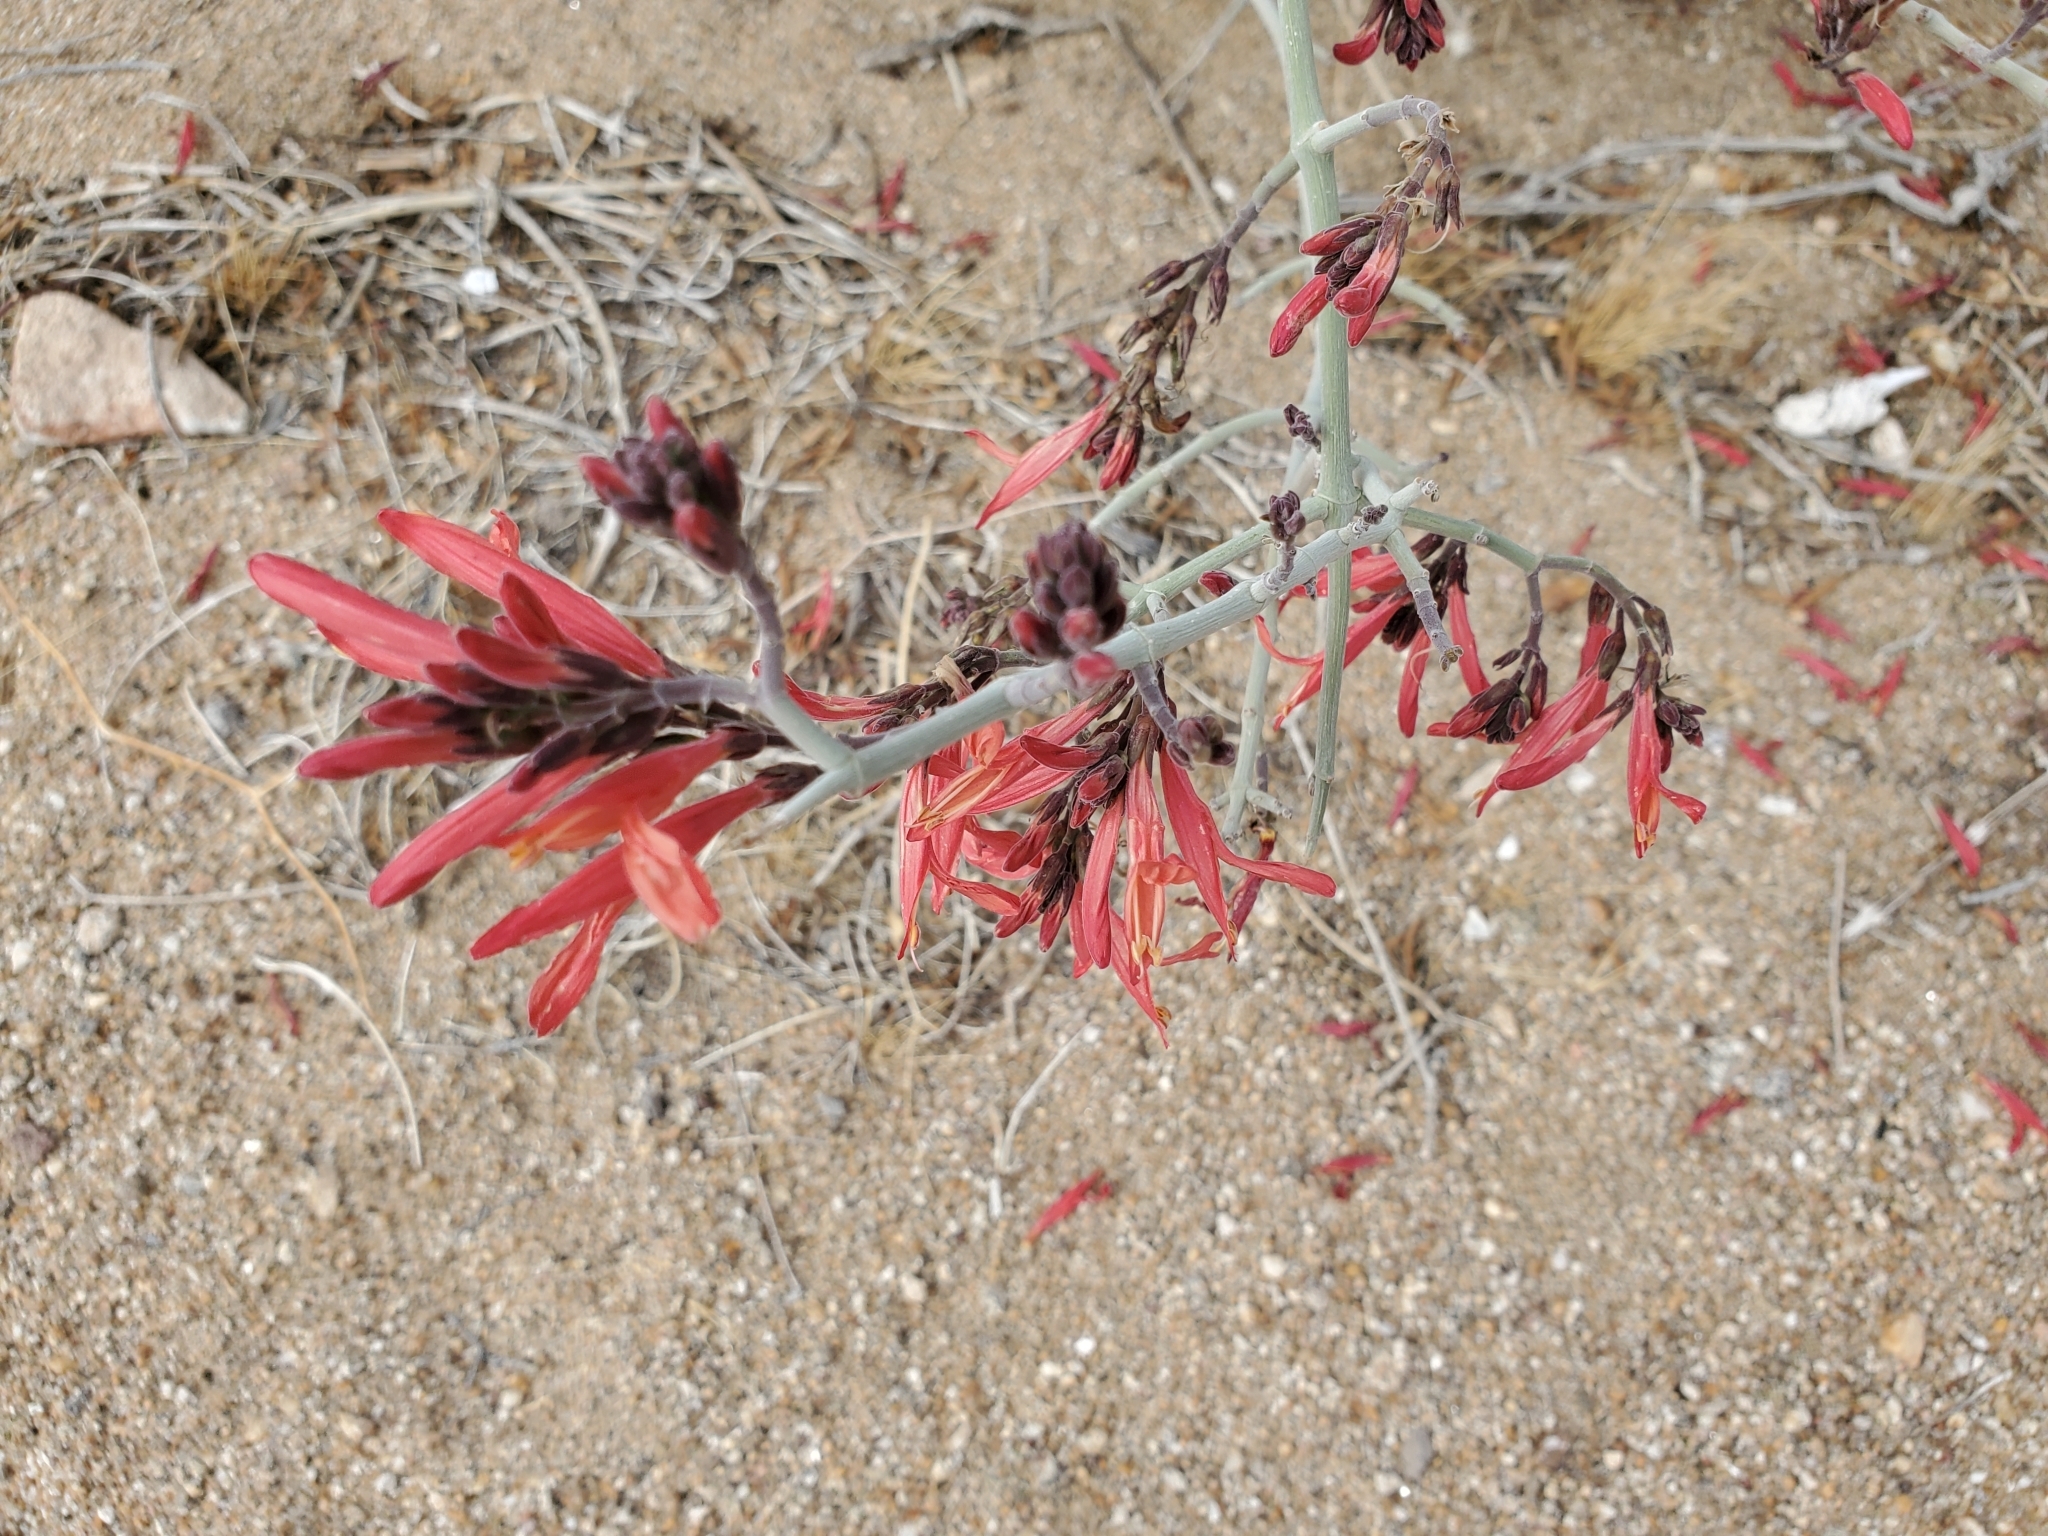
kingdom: Plantae
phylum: Tracheophyta
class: Magnoliopsida
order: Lamiales
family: Acanthaceae
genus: Justicia
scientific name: Justicia californica
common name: Chuparosa-honeysuckle
